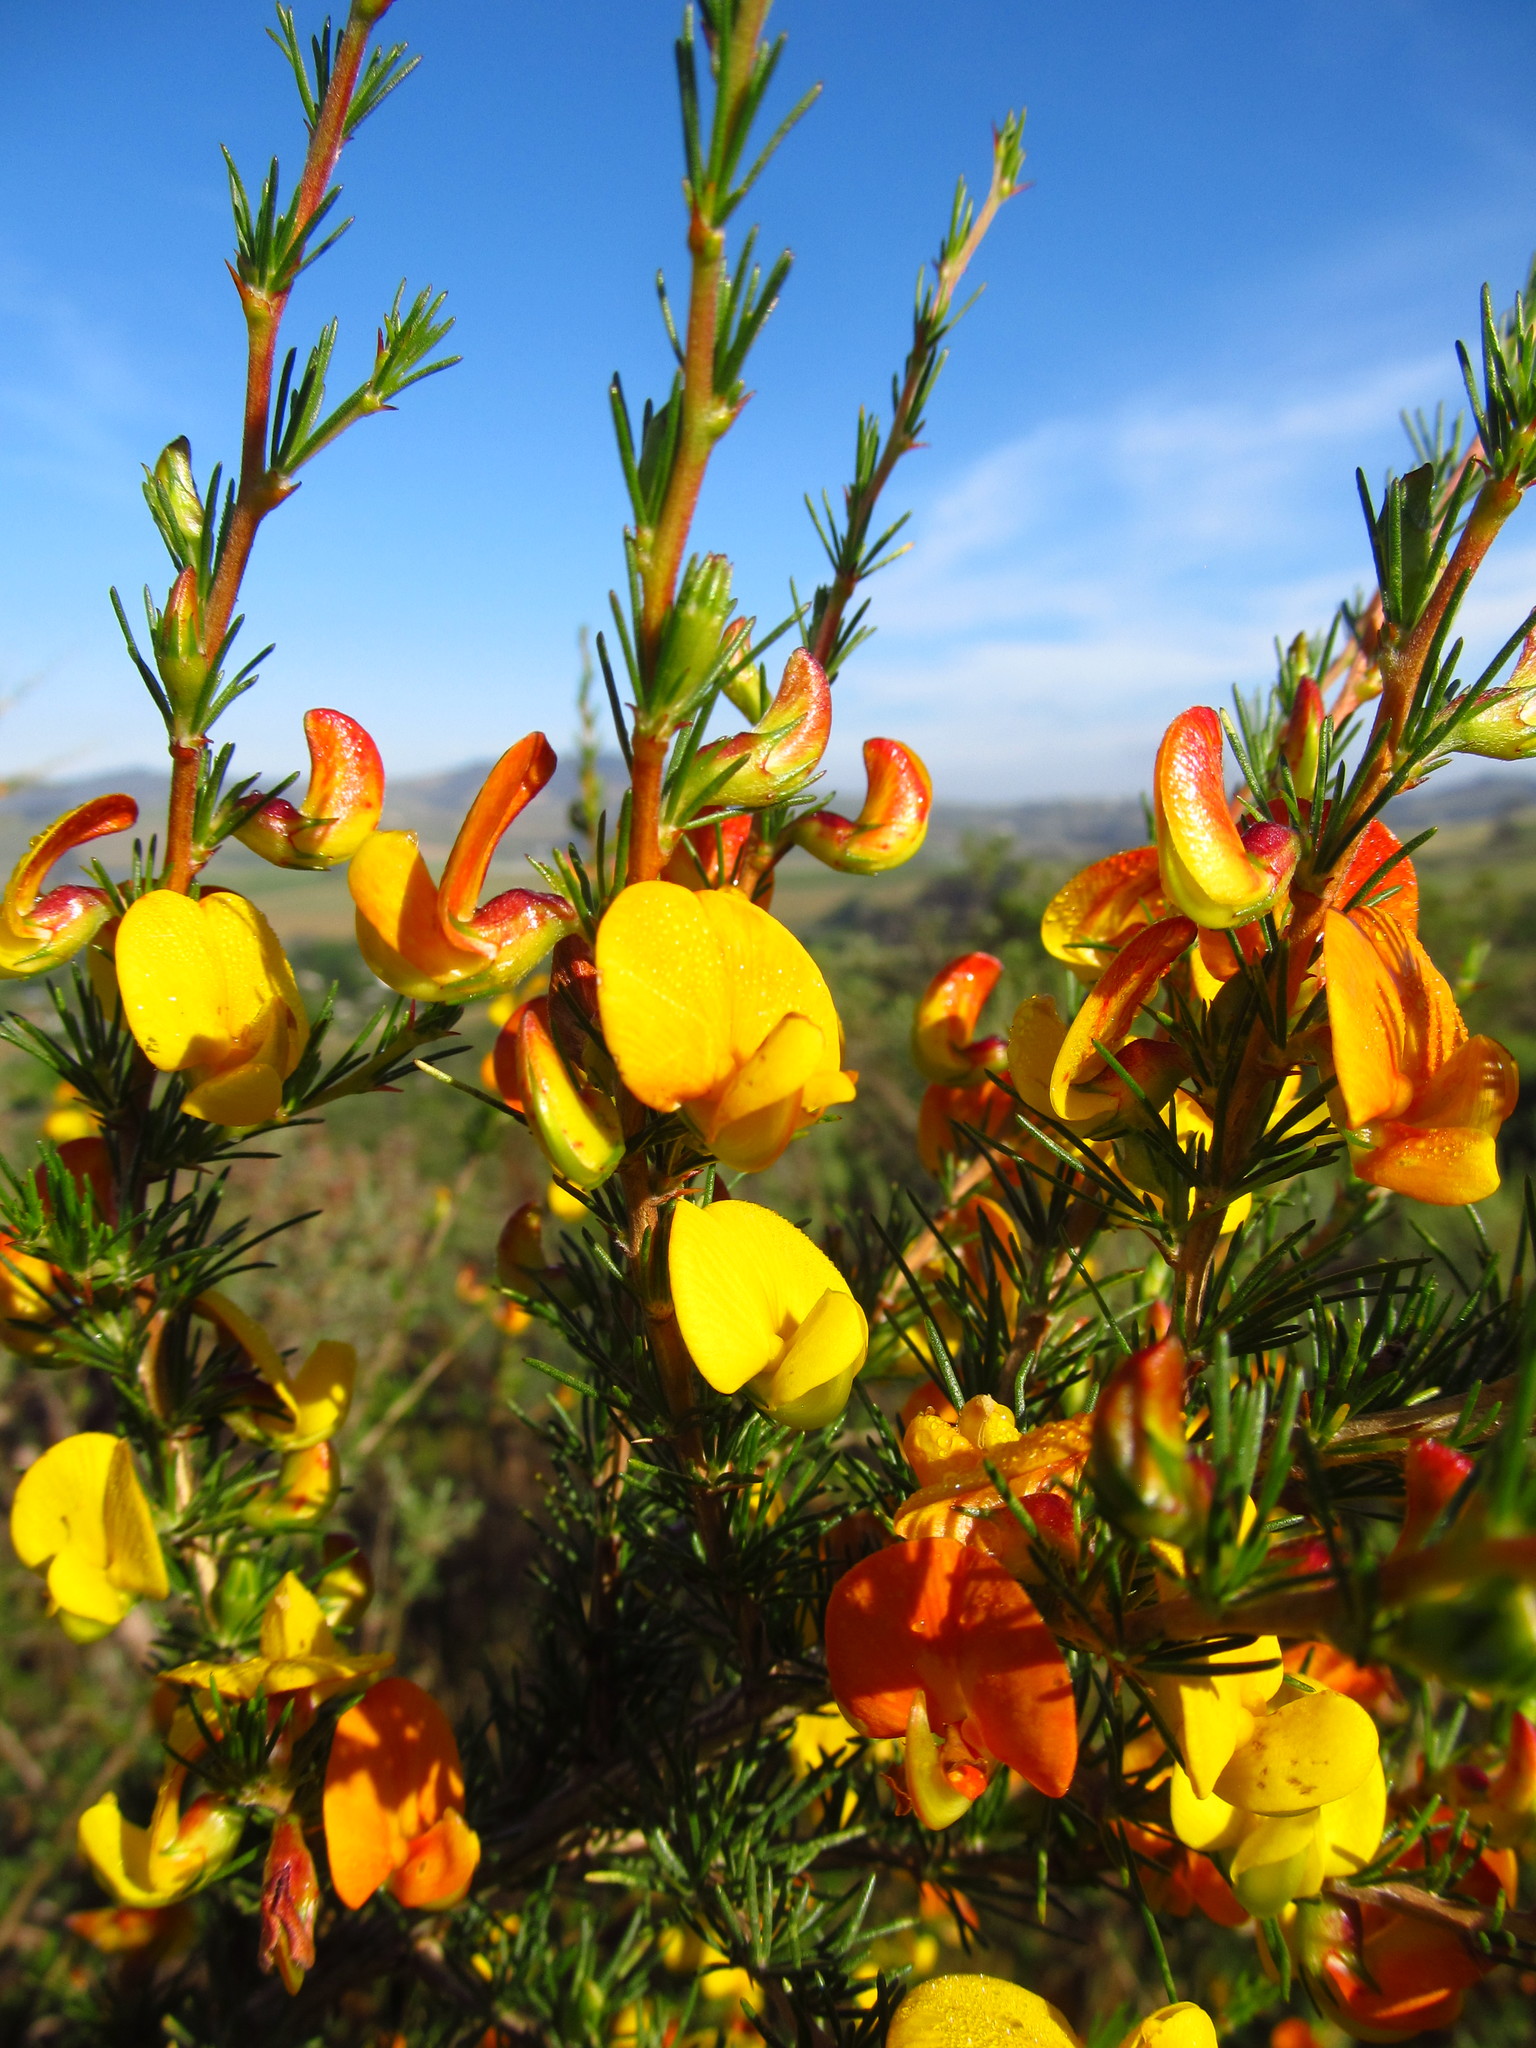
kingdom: Plantae
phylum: Tracheophyta
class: Magnoliopsida
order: Fabales
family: Fabaceae
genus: Aspalathus
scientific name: Aspalathus uniflora
